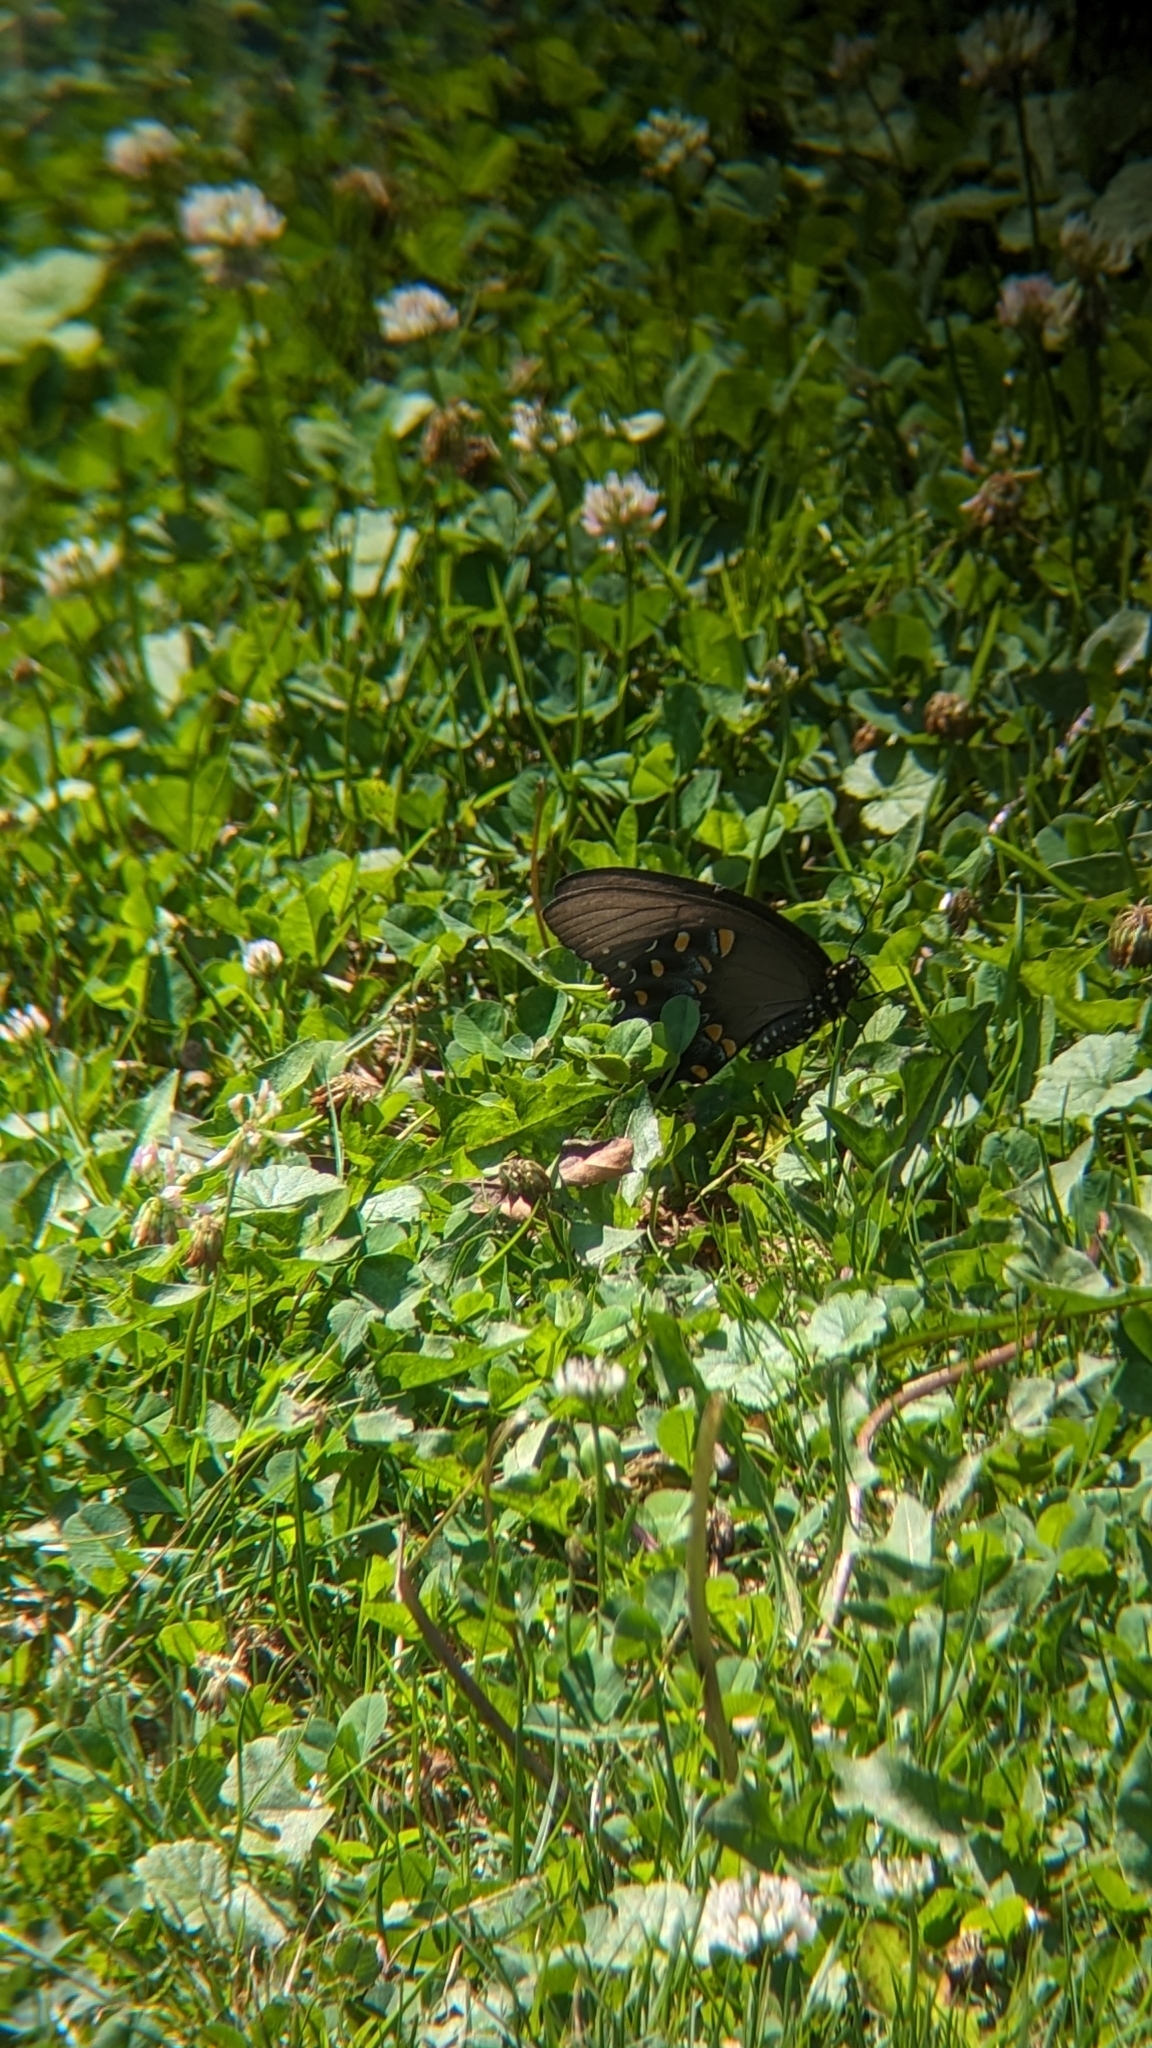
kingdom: Animalia
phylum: Arthropoda
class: Insecta
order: Lepidoptera
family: Papilionidae
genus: Papilio
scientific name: Papilio troilus
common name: Spicebush swallowtail
